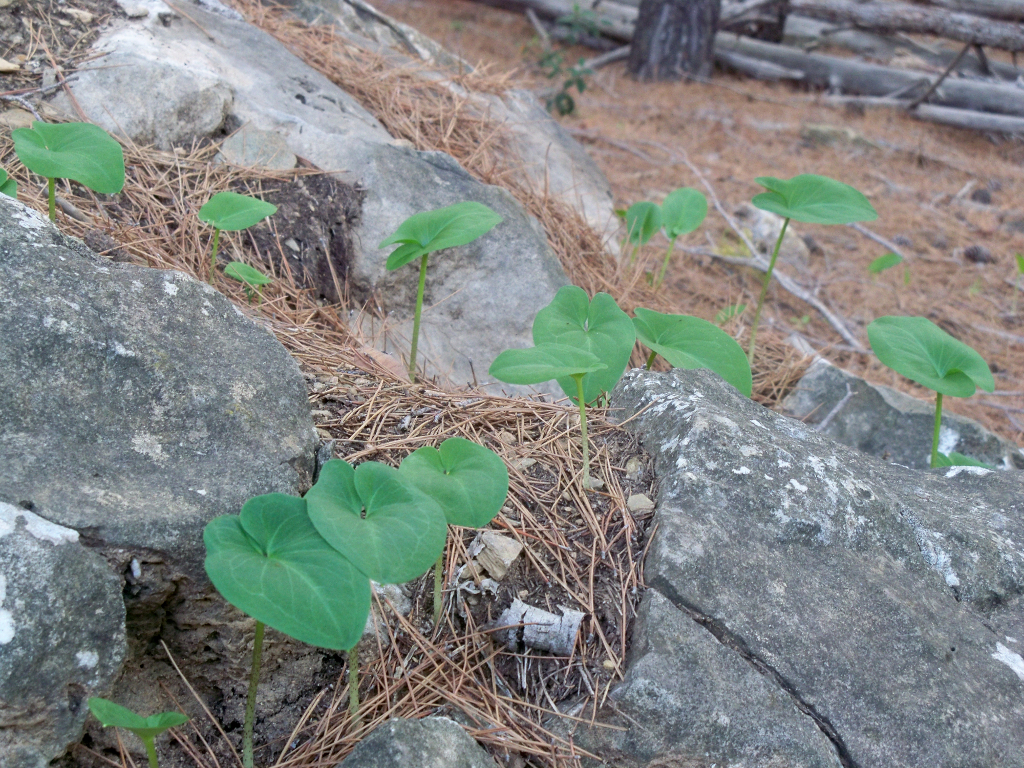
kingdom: Plantae
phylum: Tracheophyta
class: Liliopsida
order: Alismatales
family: Araceae
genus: Arisarum
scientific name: Arisarum vulgare
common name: Common arisarum
